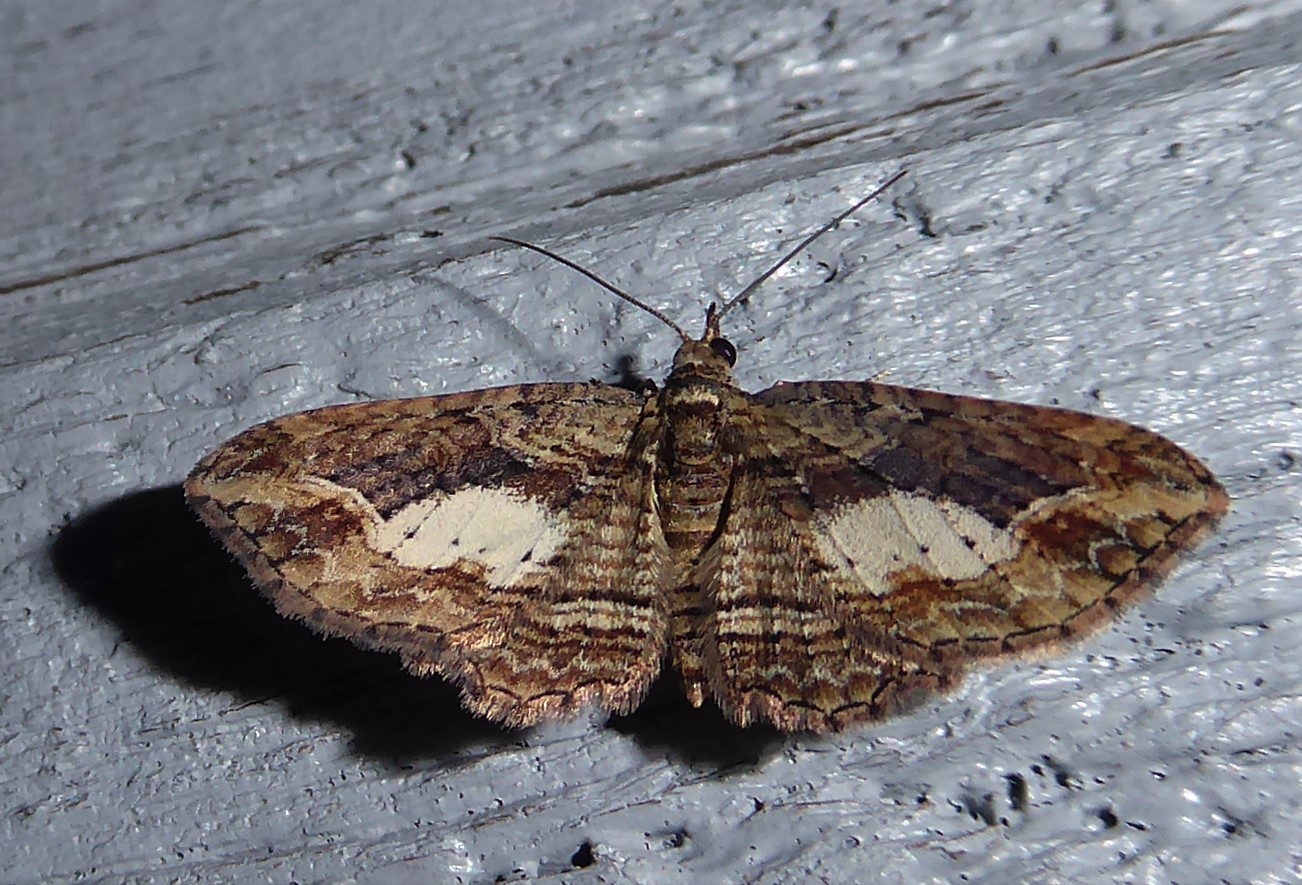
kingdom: Animalia
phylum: Arthropoda
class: Insecta
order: Lepidoptera
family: Geometridae
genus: Chloroclystis
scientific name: Chloroclystis filata
